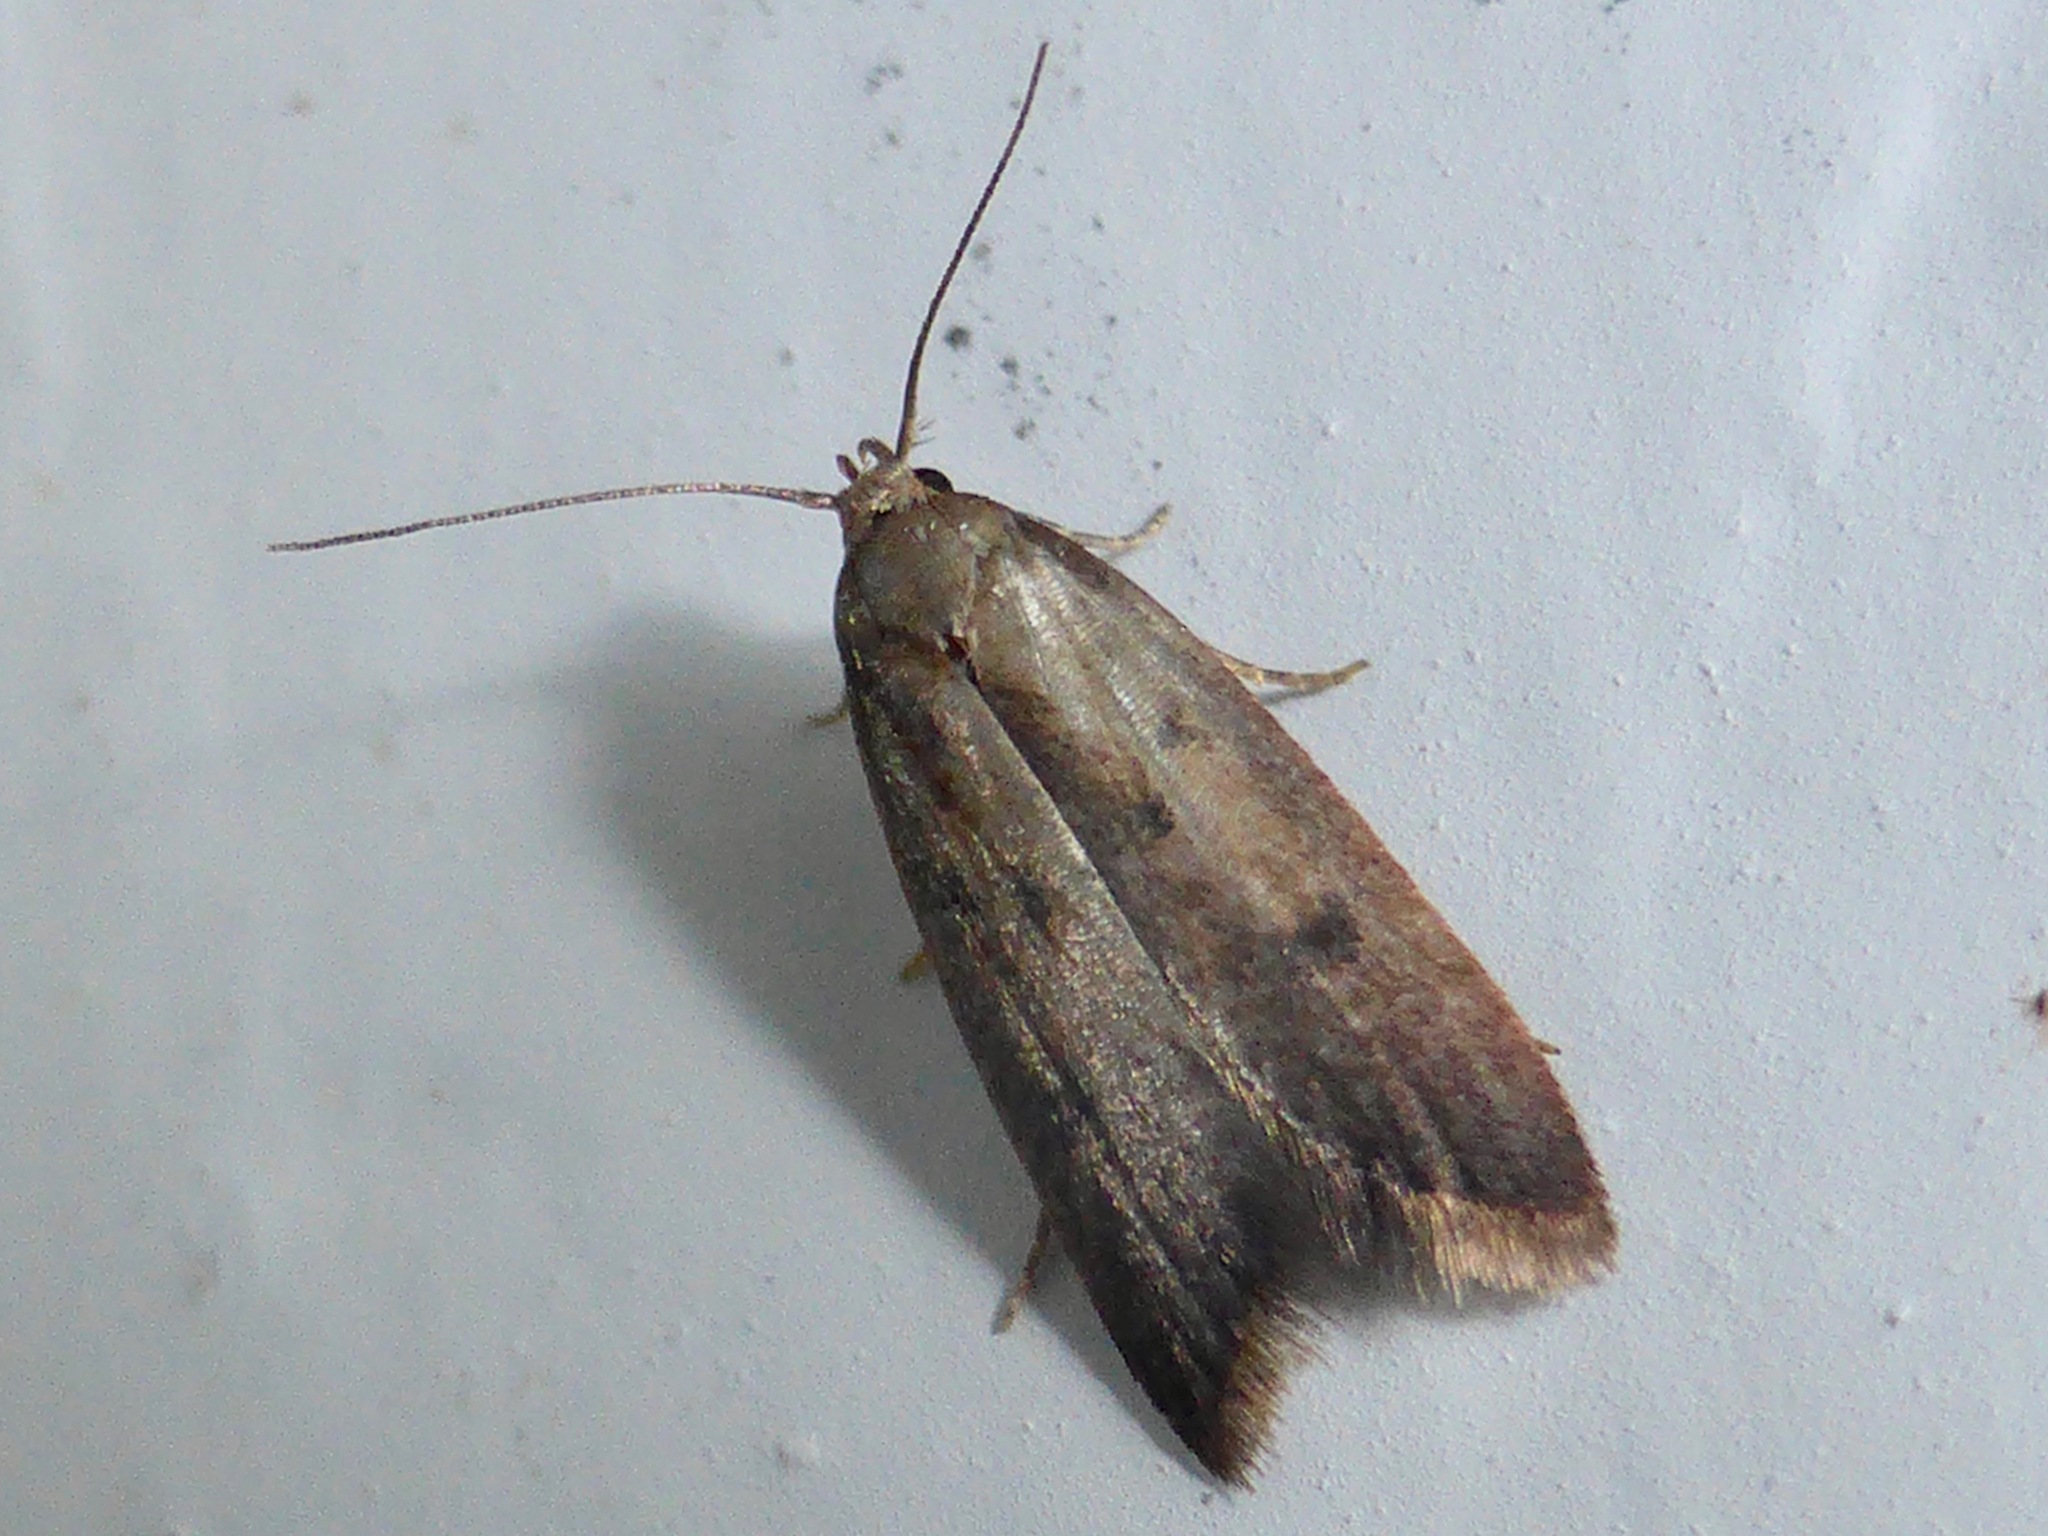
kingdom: Animalia
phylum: Arthropoda
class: Insecta
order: Lepidoptera
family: Oecophoridae
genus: Tachystola
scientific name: Tachystola acroxantha
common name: Ruddy streak
